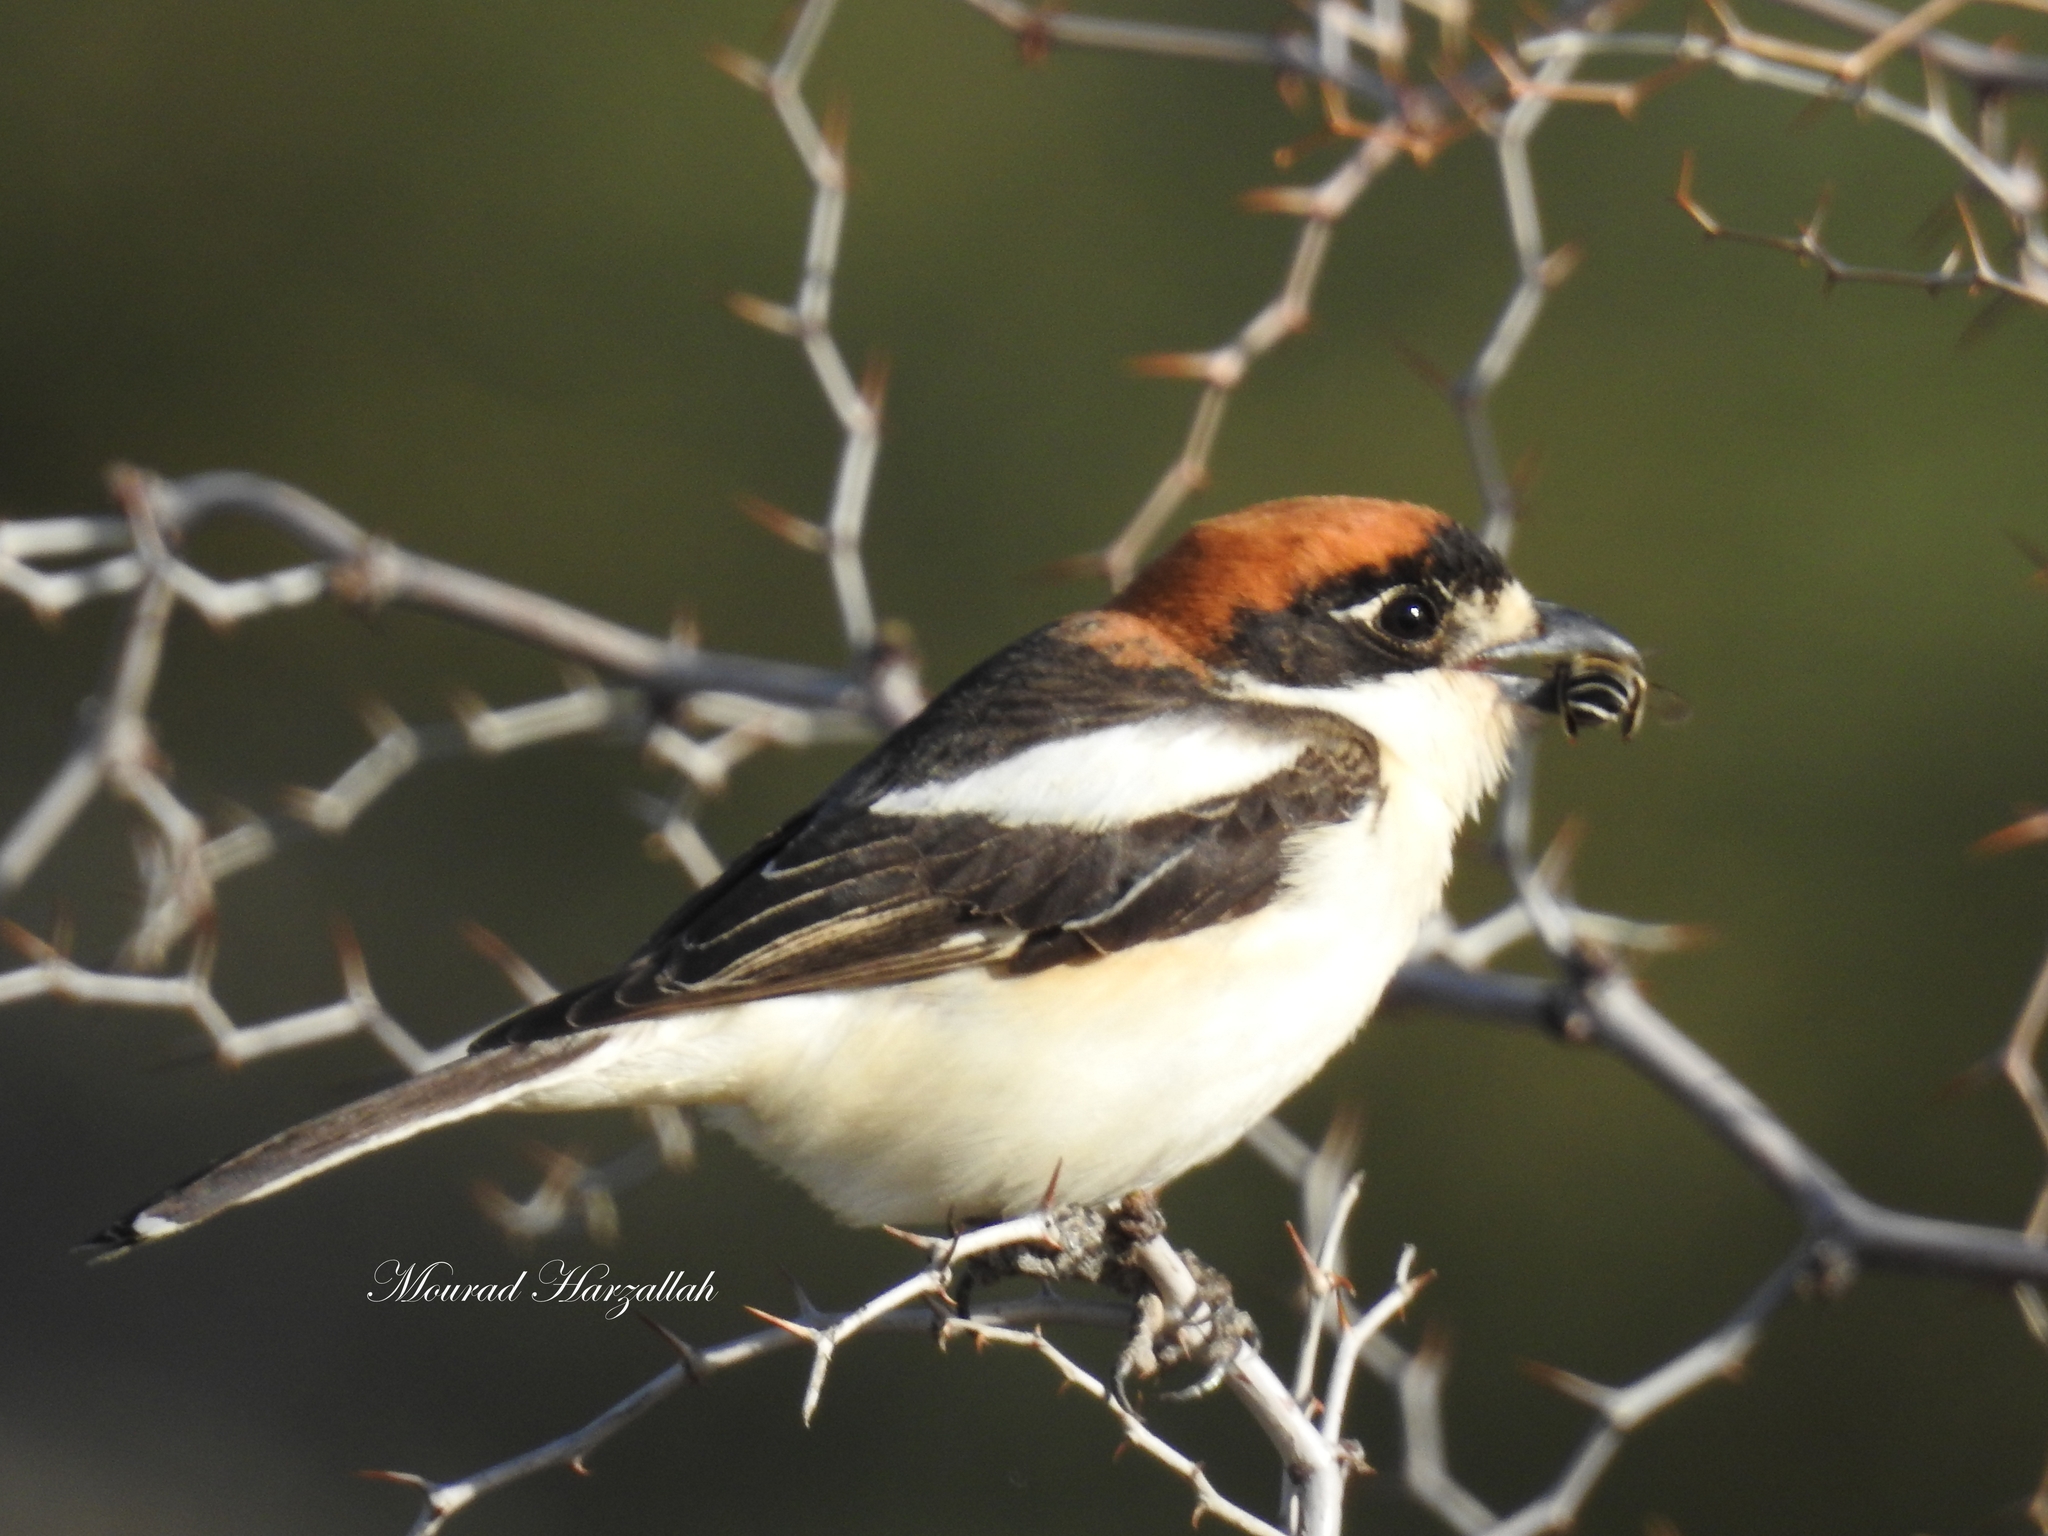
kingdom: Animalia
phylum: Chordata
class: Aves
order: Passeriformes
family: Laniidae
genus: Lanius
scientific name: Lanius senator
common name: Woodchat shrike
